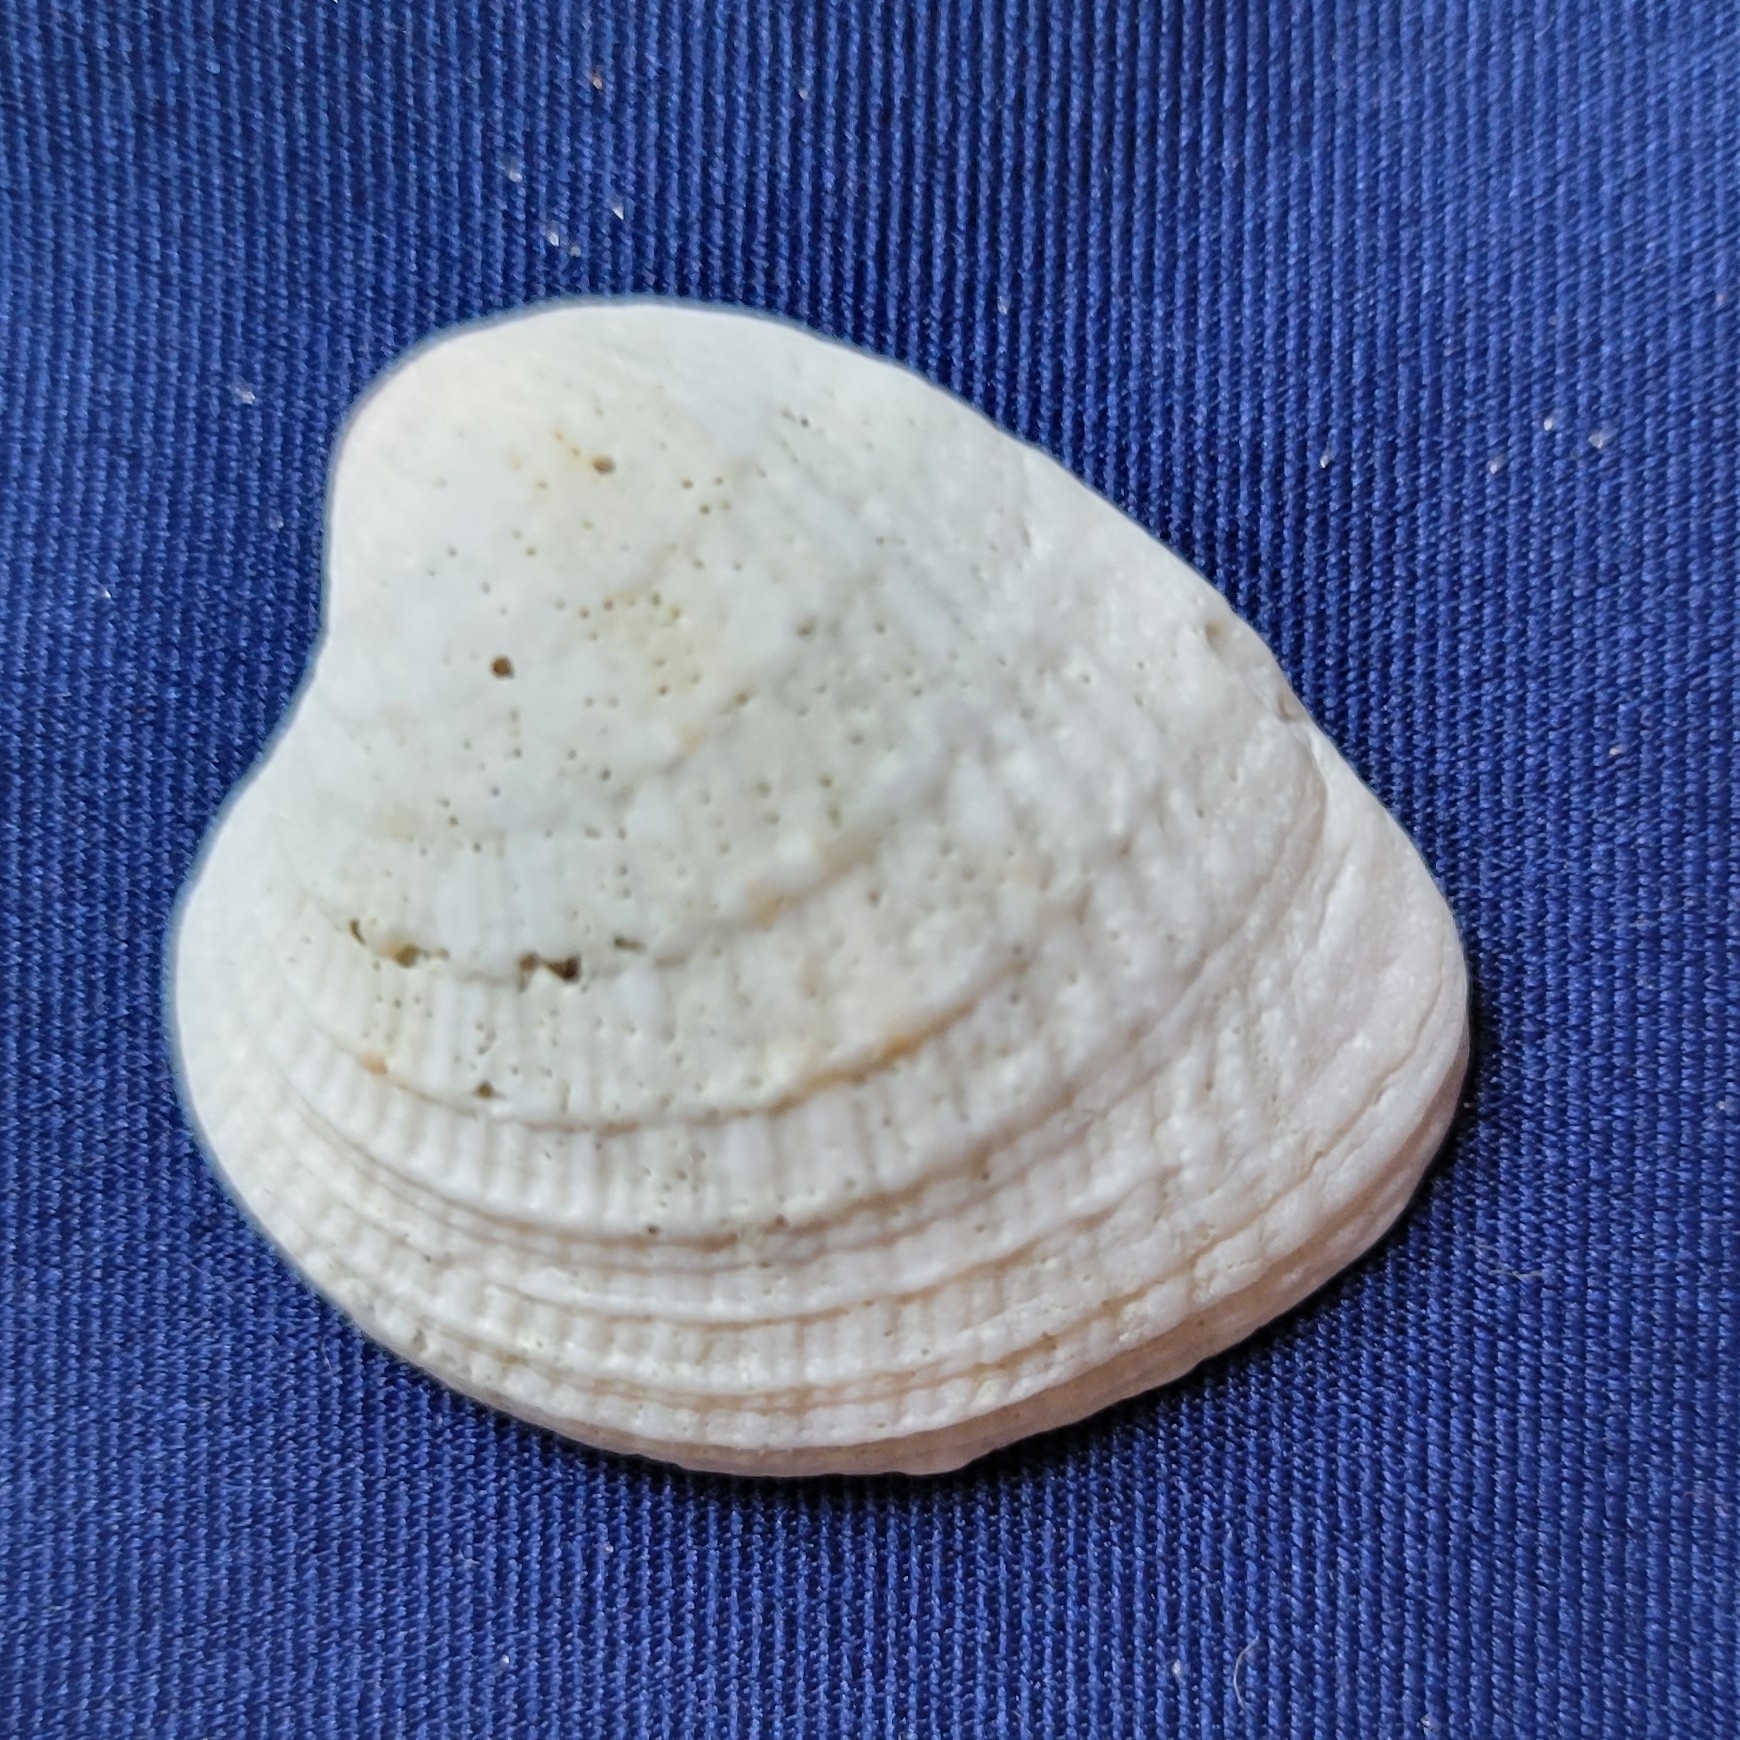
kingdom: Animalia
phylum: Mollusca
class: Bivalvia
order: Venerida
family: Veneridae
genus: Chione
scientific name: Chione elevata
